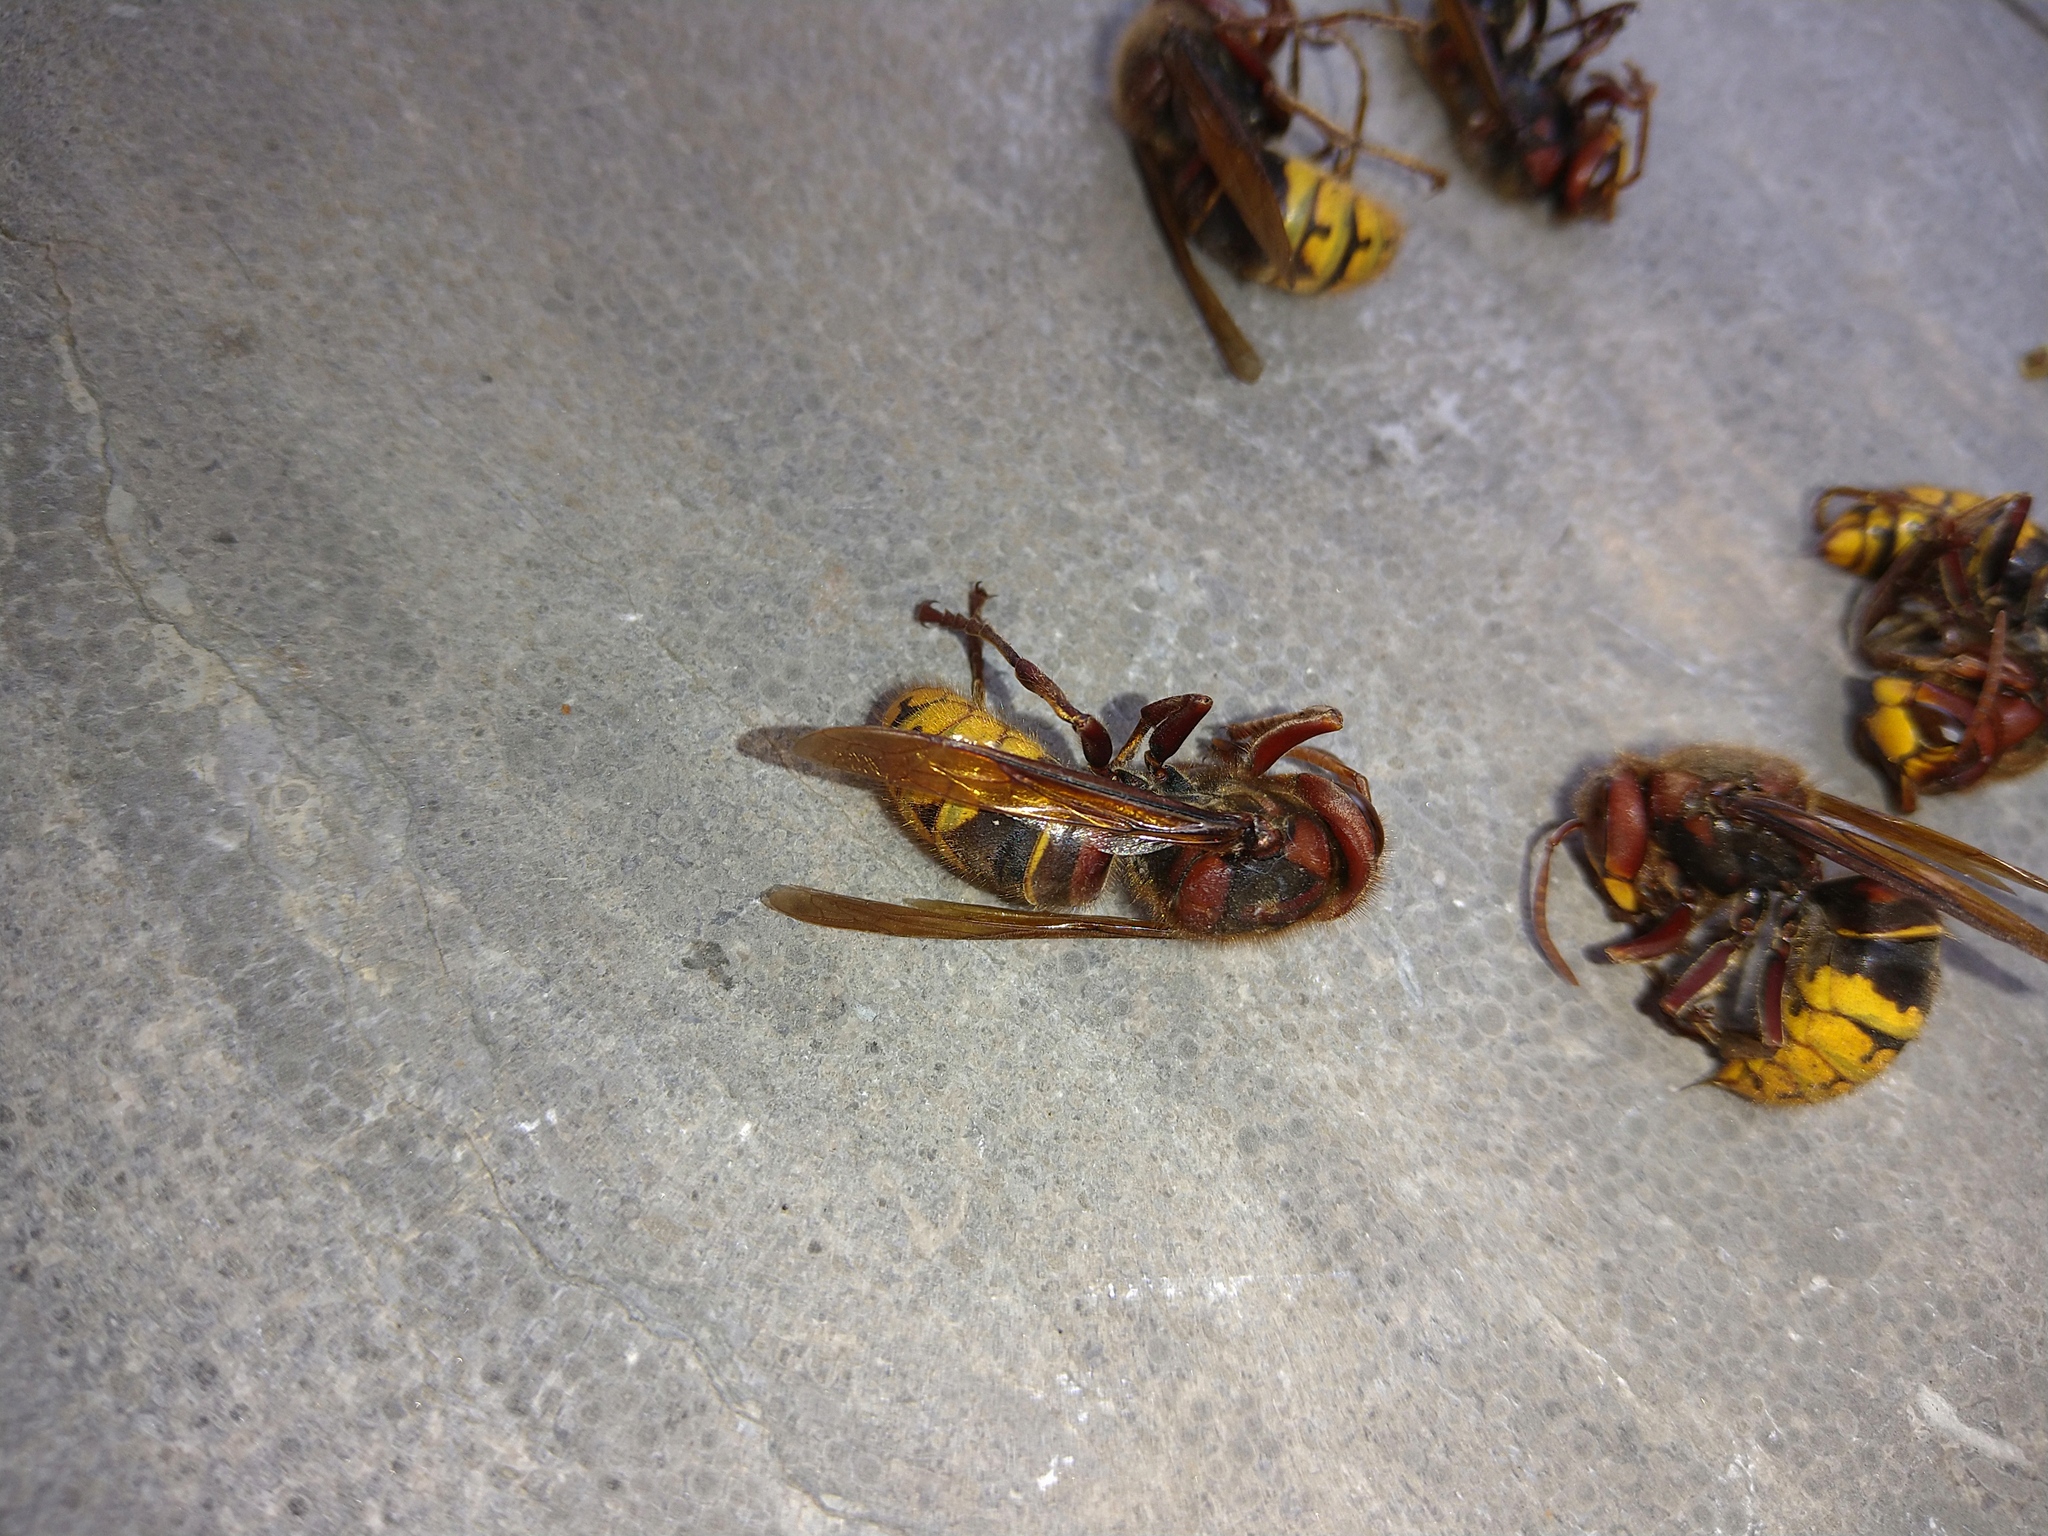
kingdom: Animalia
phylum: Arthropoda
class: Insecta
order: Hymenoptera
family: Vespidae
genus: Vespa
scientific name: Vespa crabro
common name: Hornet
